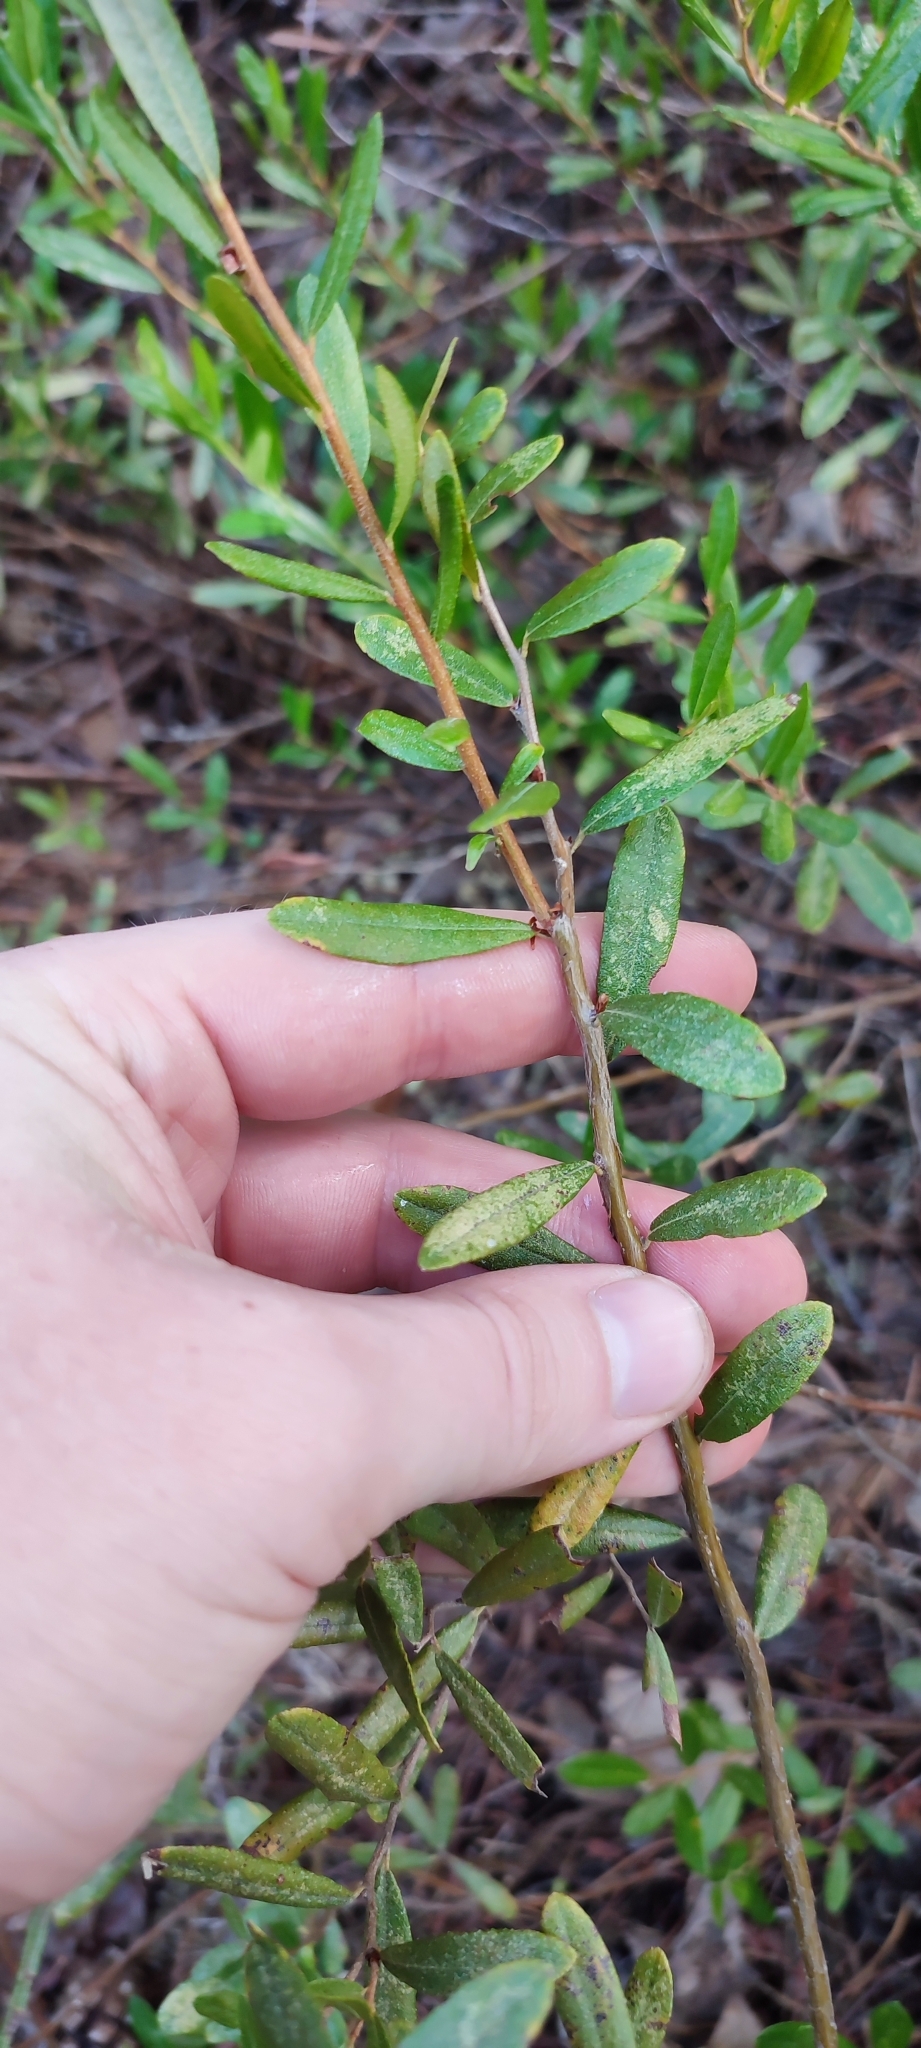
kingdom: Plantae
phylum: Tracheophyta
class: Magnoliopsida
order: Ericales
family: Ericaceae
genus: Chamaedaphne
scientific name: Chamaedaphne calyculata
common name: Leatherleaf
